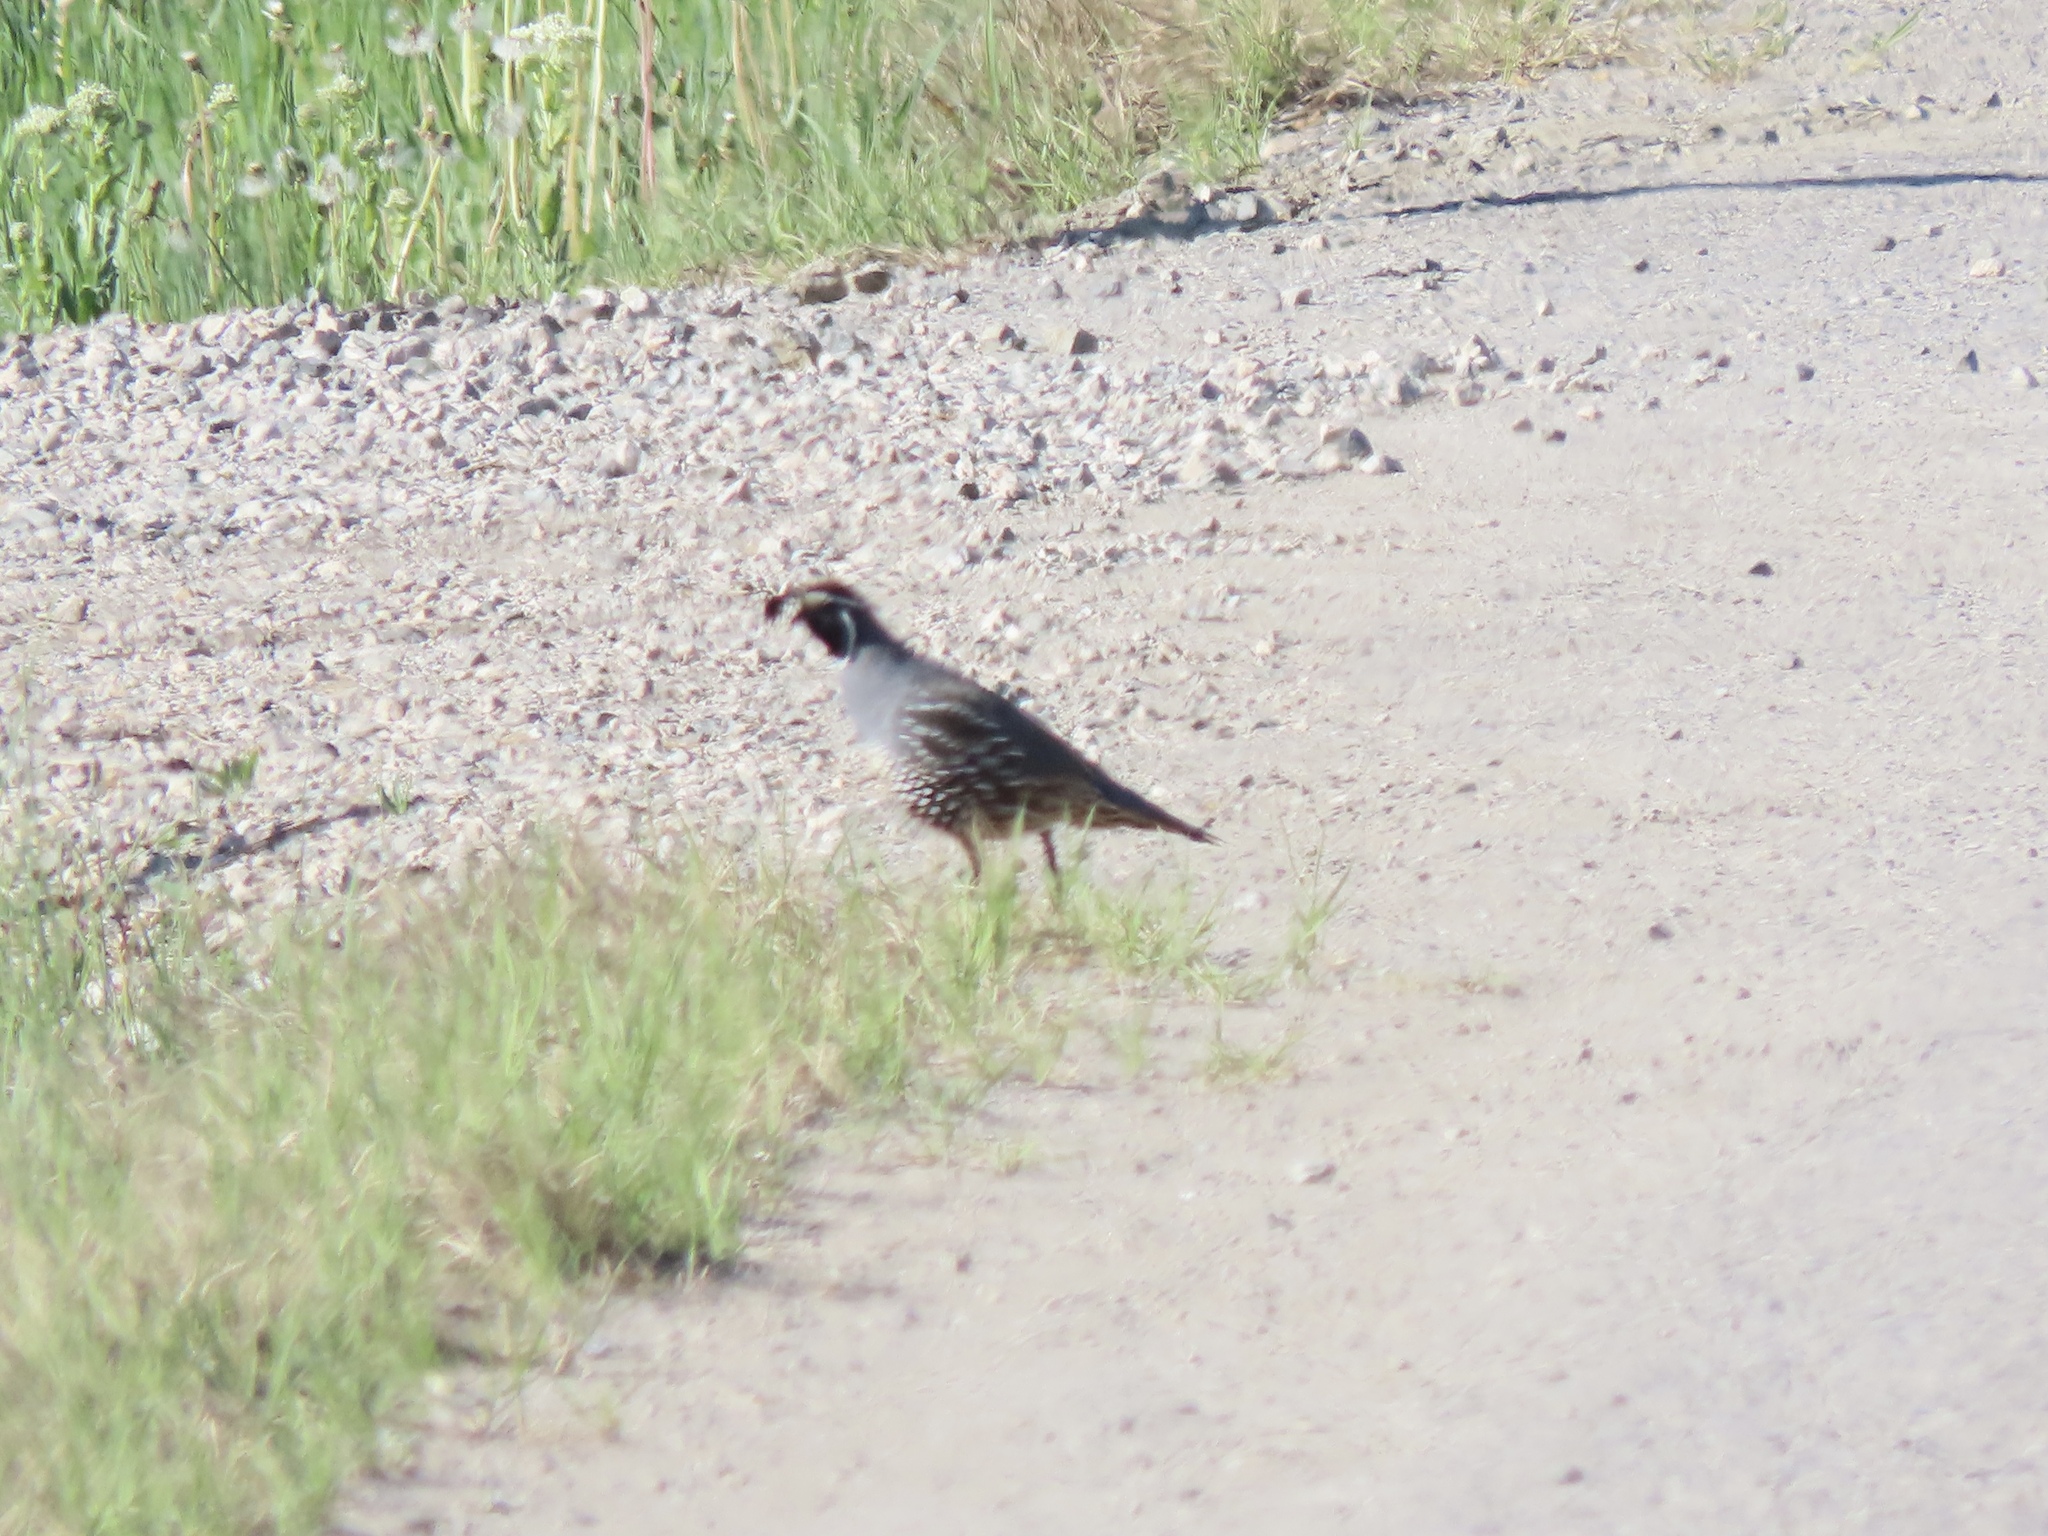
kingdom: Animalia
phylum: Chordata
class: Aves
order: Galliformes
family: Odontophoridae
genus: Callipepla
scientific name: Callipepla californica
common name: California quail
